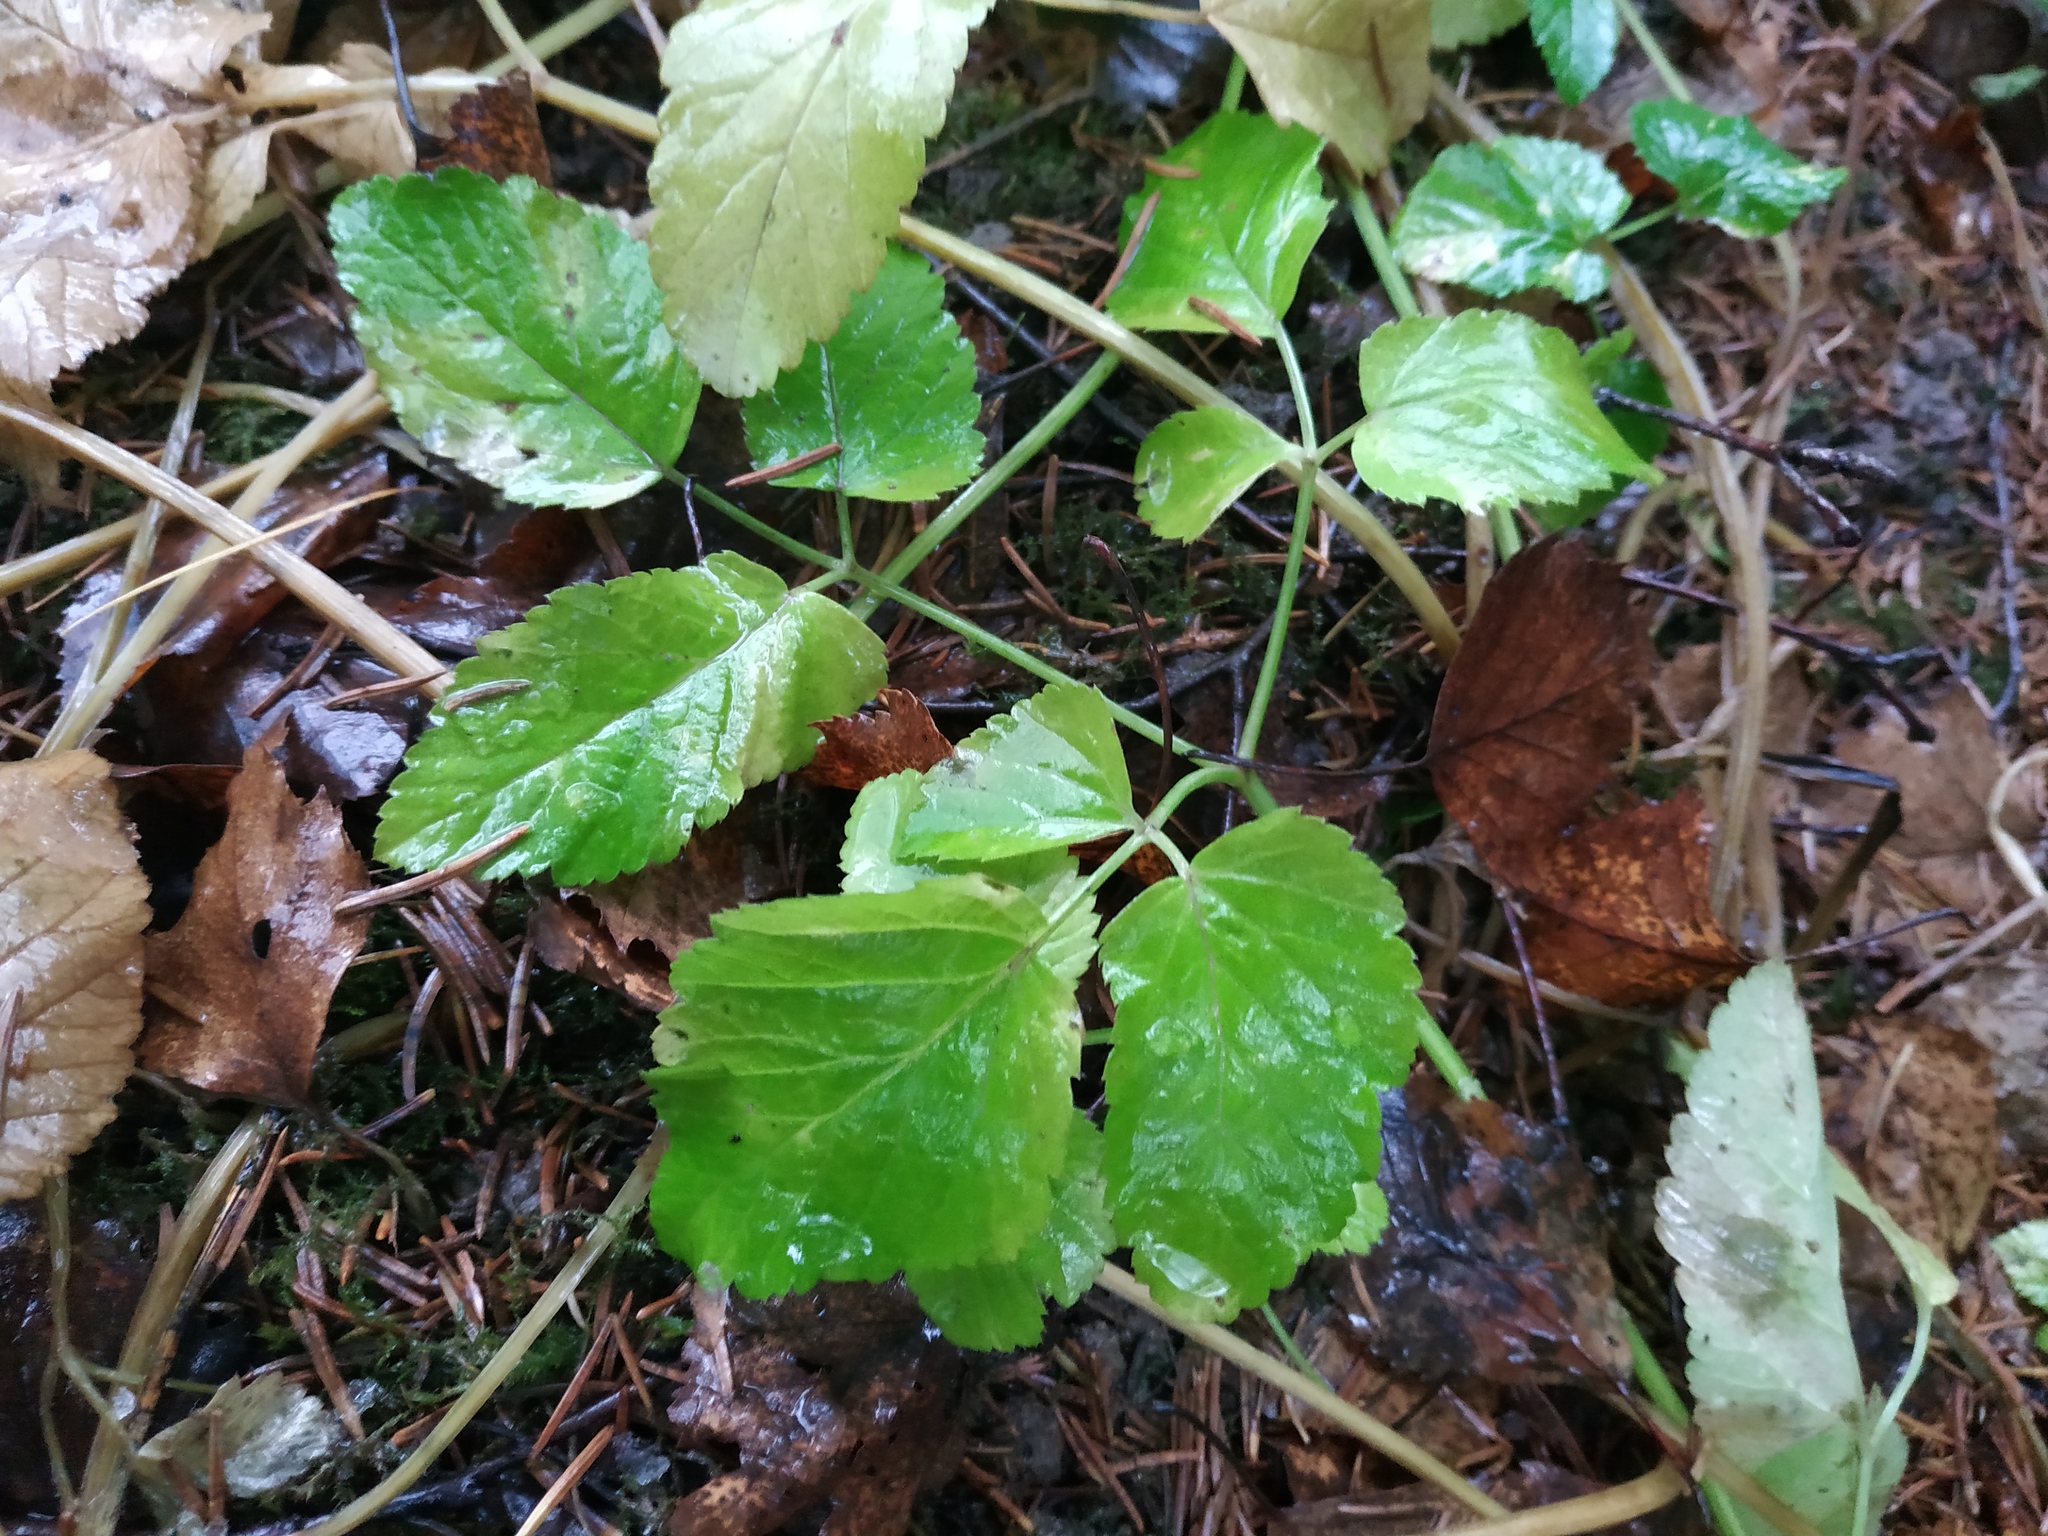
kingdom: Plantae
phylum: Tracheophyta
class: Magnoliopsida
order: Apiales
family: Apiaceae
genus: Aegopodium
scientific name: Aegopodium podagraria
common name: Ground-elder
